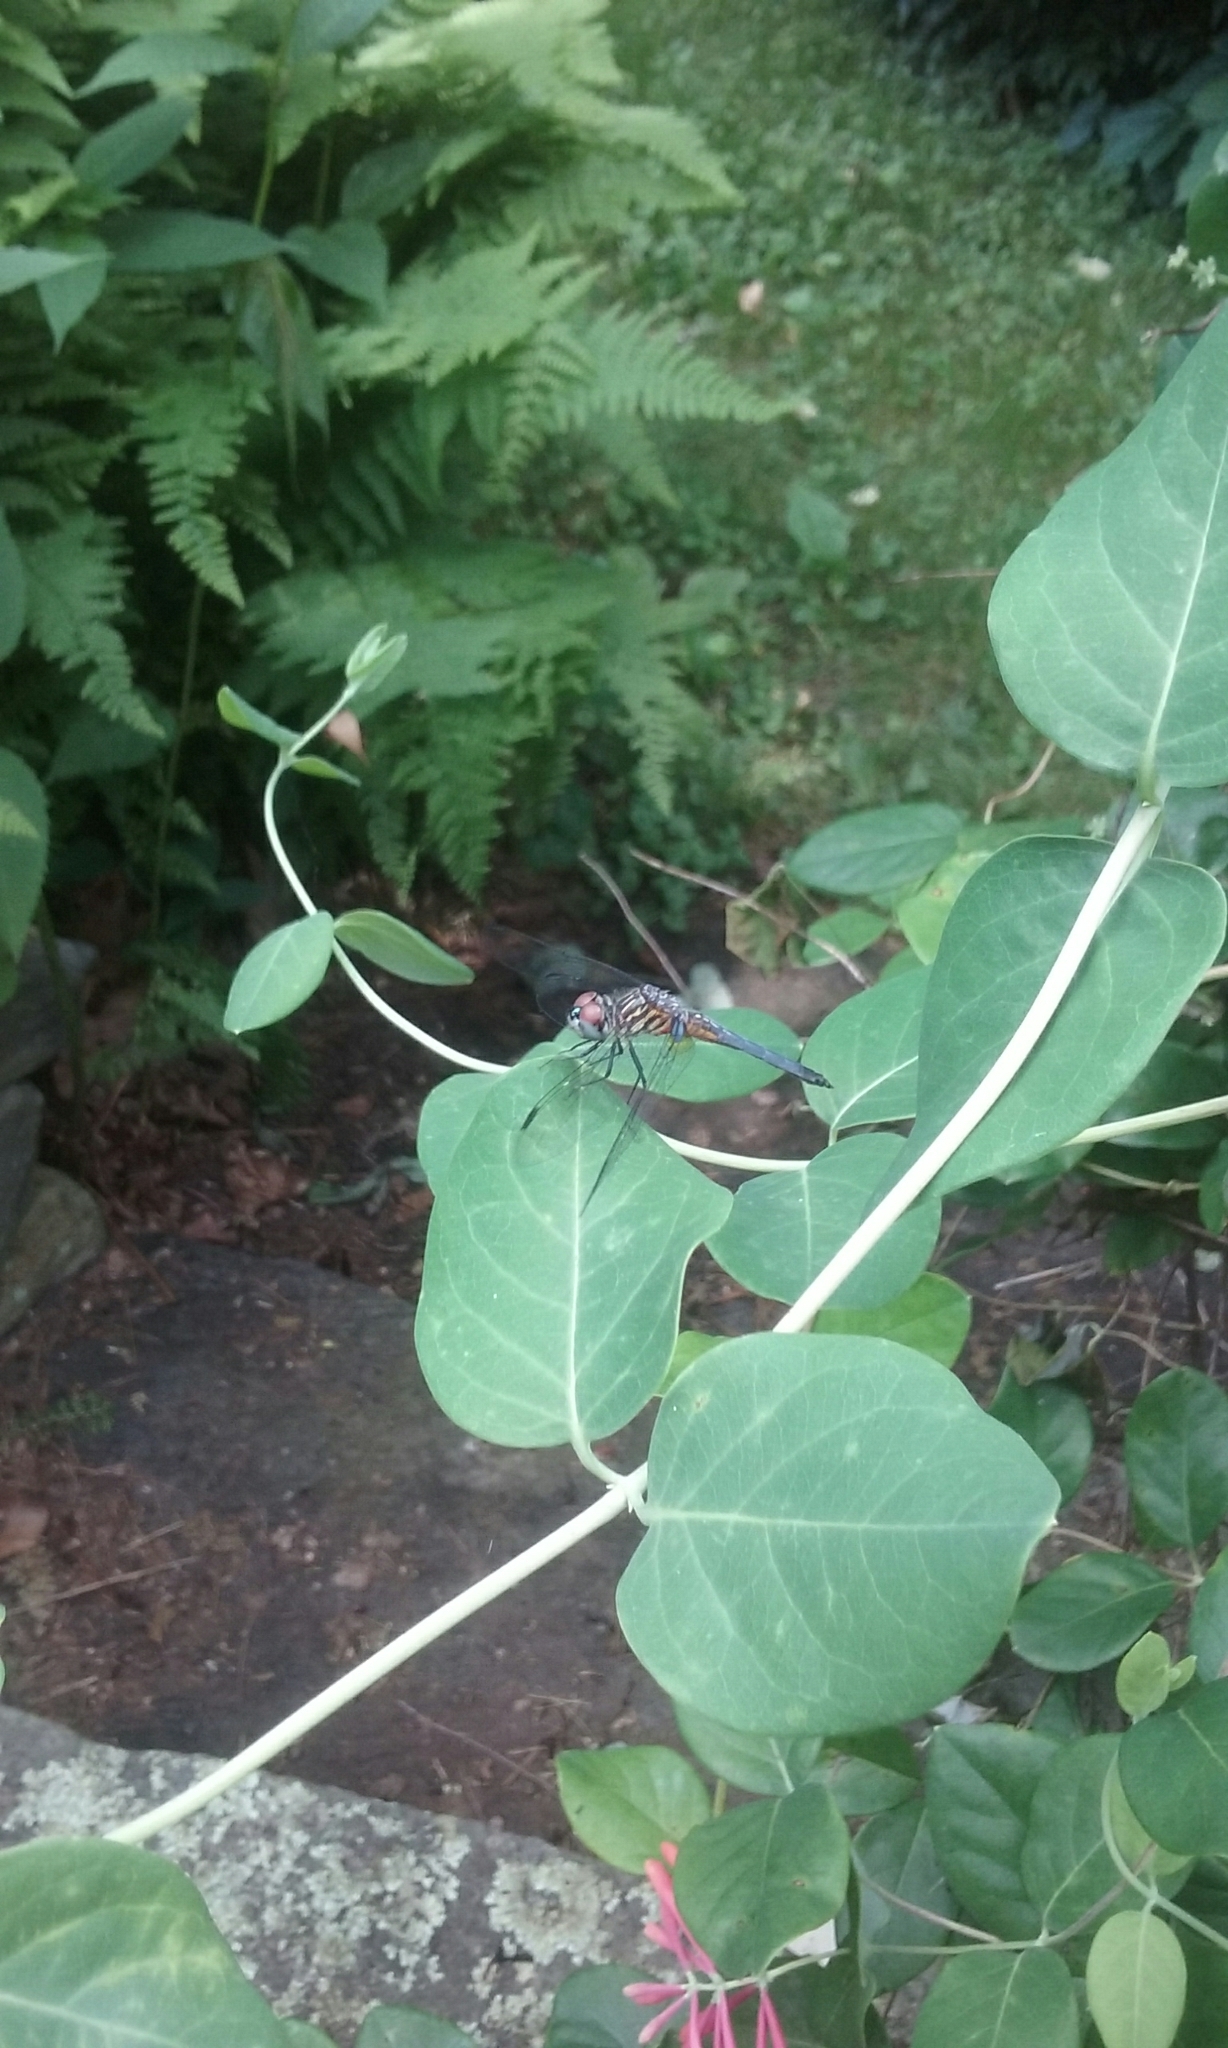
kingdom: Animalia
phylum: Arthropoda
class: Insecta
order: Odonata
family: Libellulidae
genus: Pachydiplax
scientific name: Pachydiplax longipennis
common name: Blue dasher
